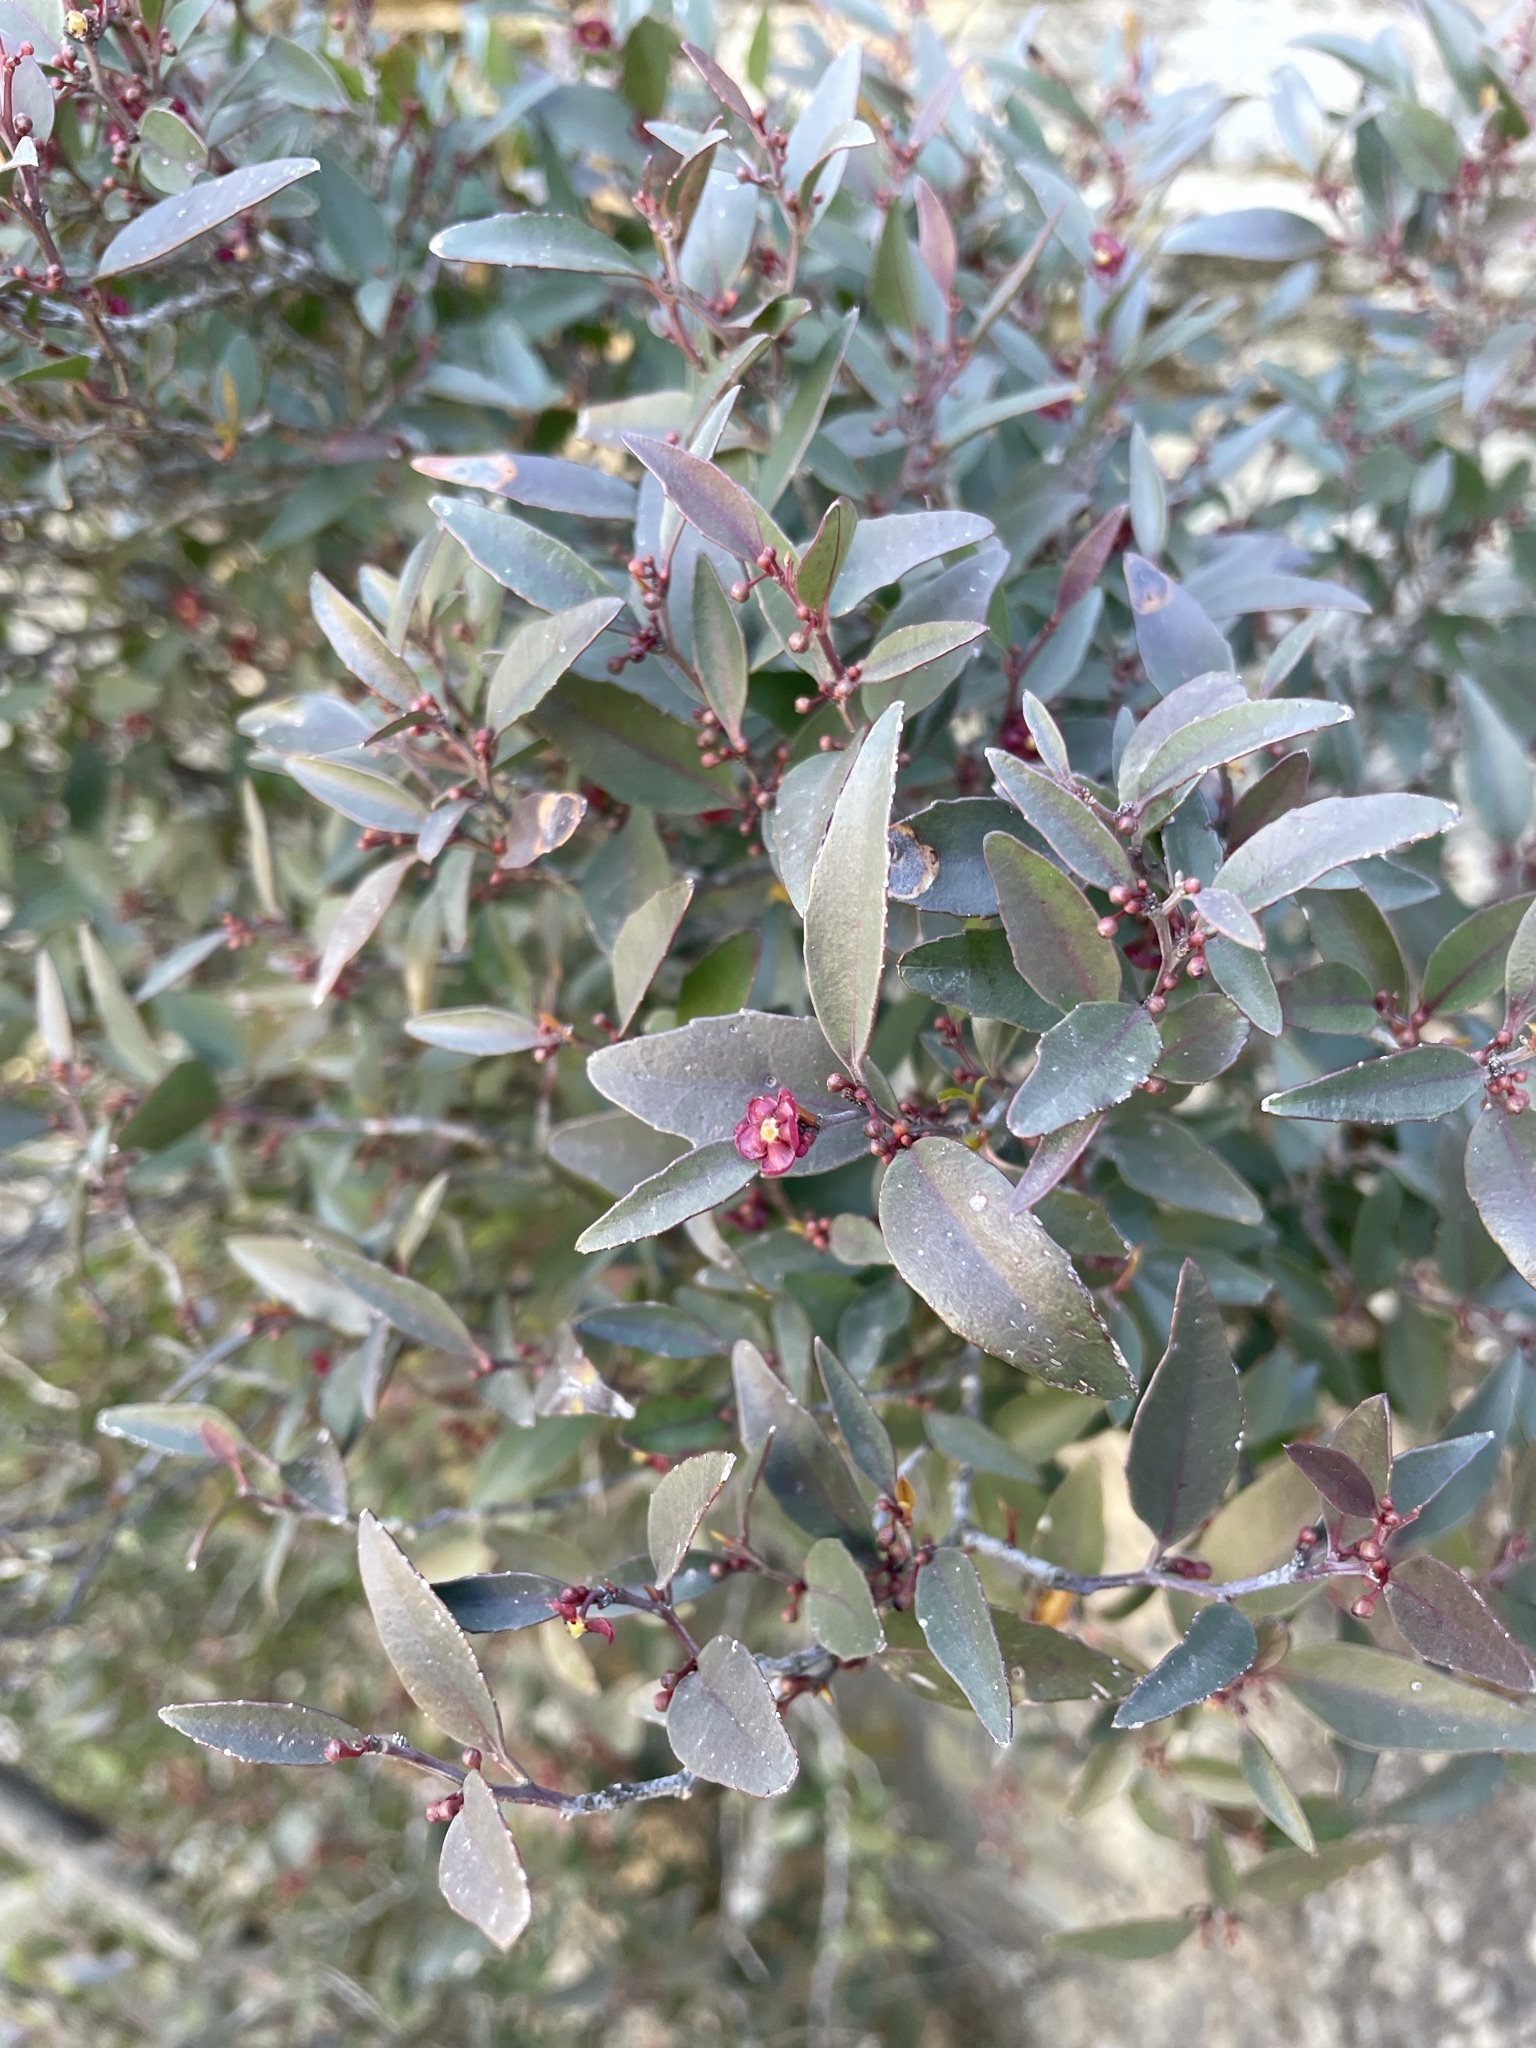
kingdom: Plantae
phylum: Tracheophyta
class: Magnoliopsida
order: Celastrales
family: Celastraceae
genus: Gymnosporia
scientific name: Gymnosporia acuminata
